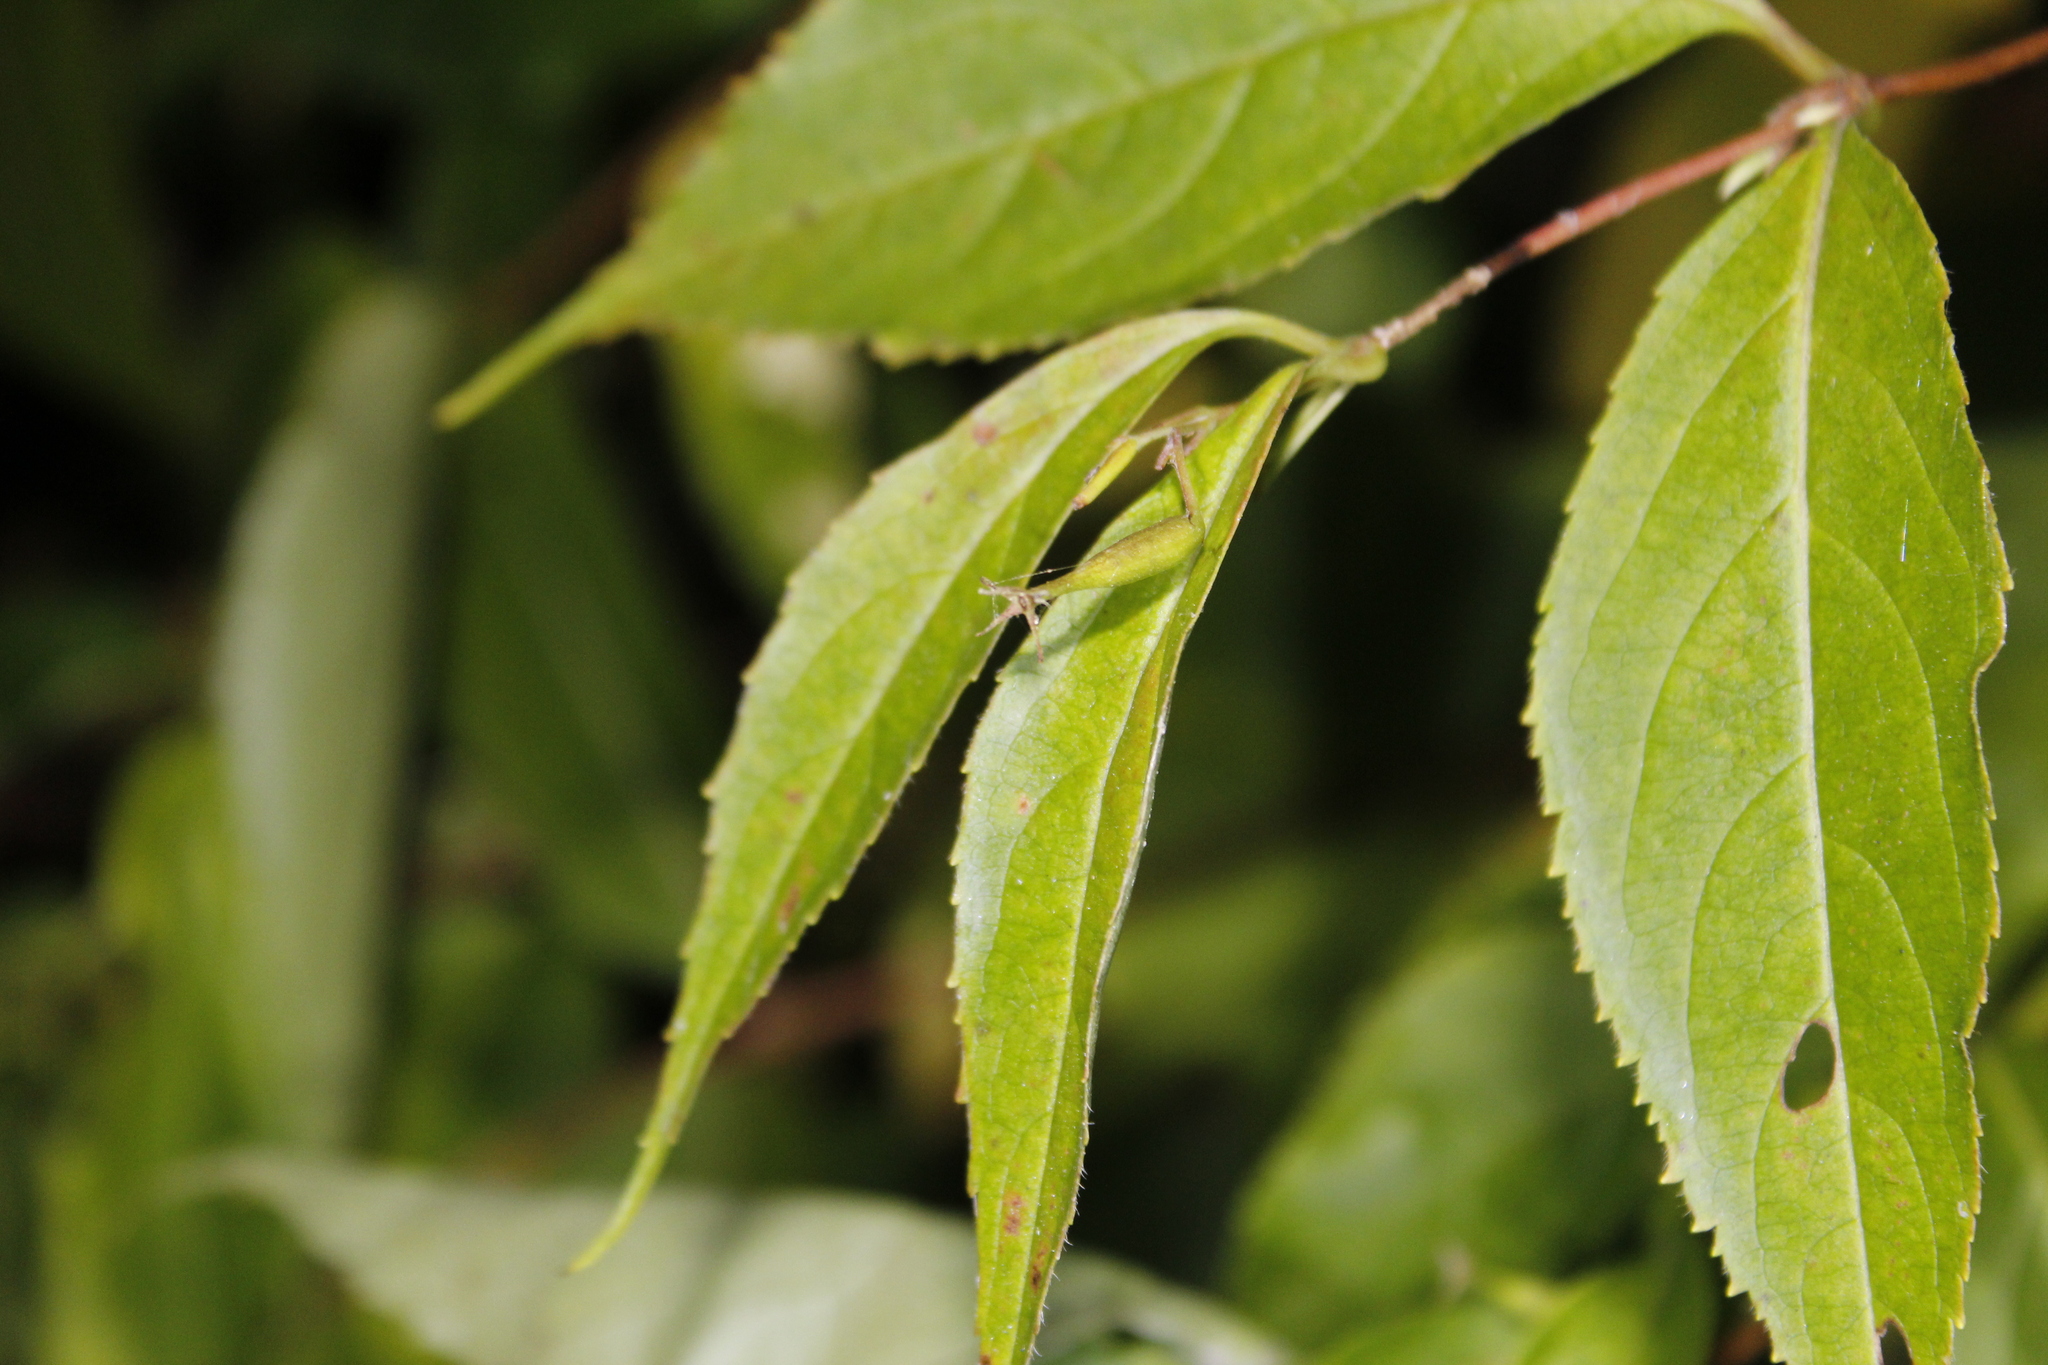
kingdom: Plantae
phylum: Tracheophyta
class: Magnoliopsida
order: Dipsacales
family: Caprifoliaceae
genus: Diervilla
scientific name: Diervilla lonicera
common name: Bush-honeysuckle
